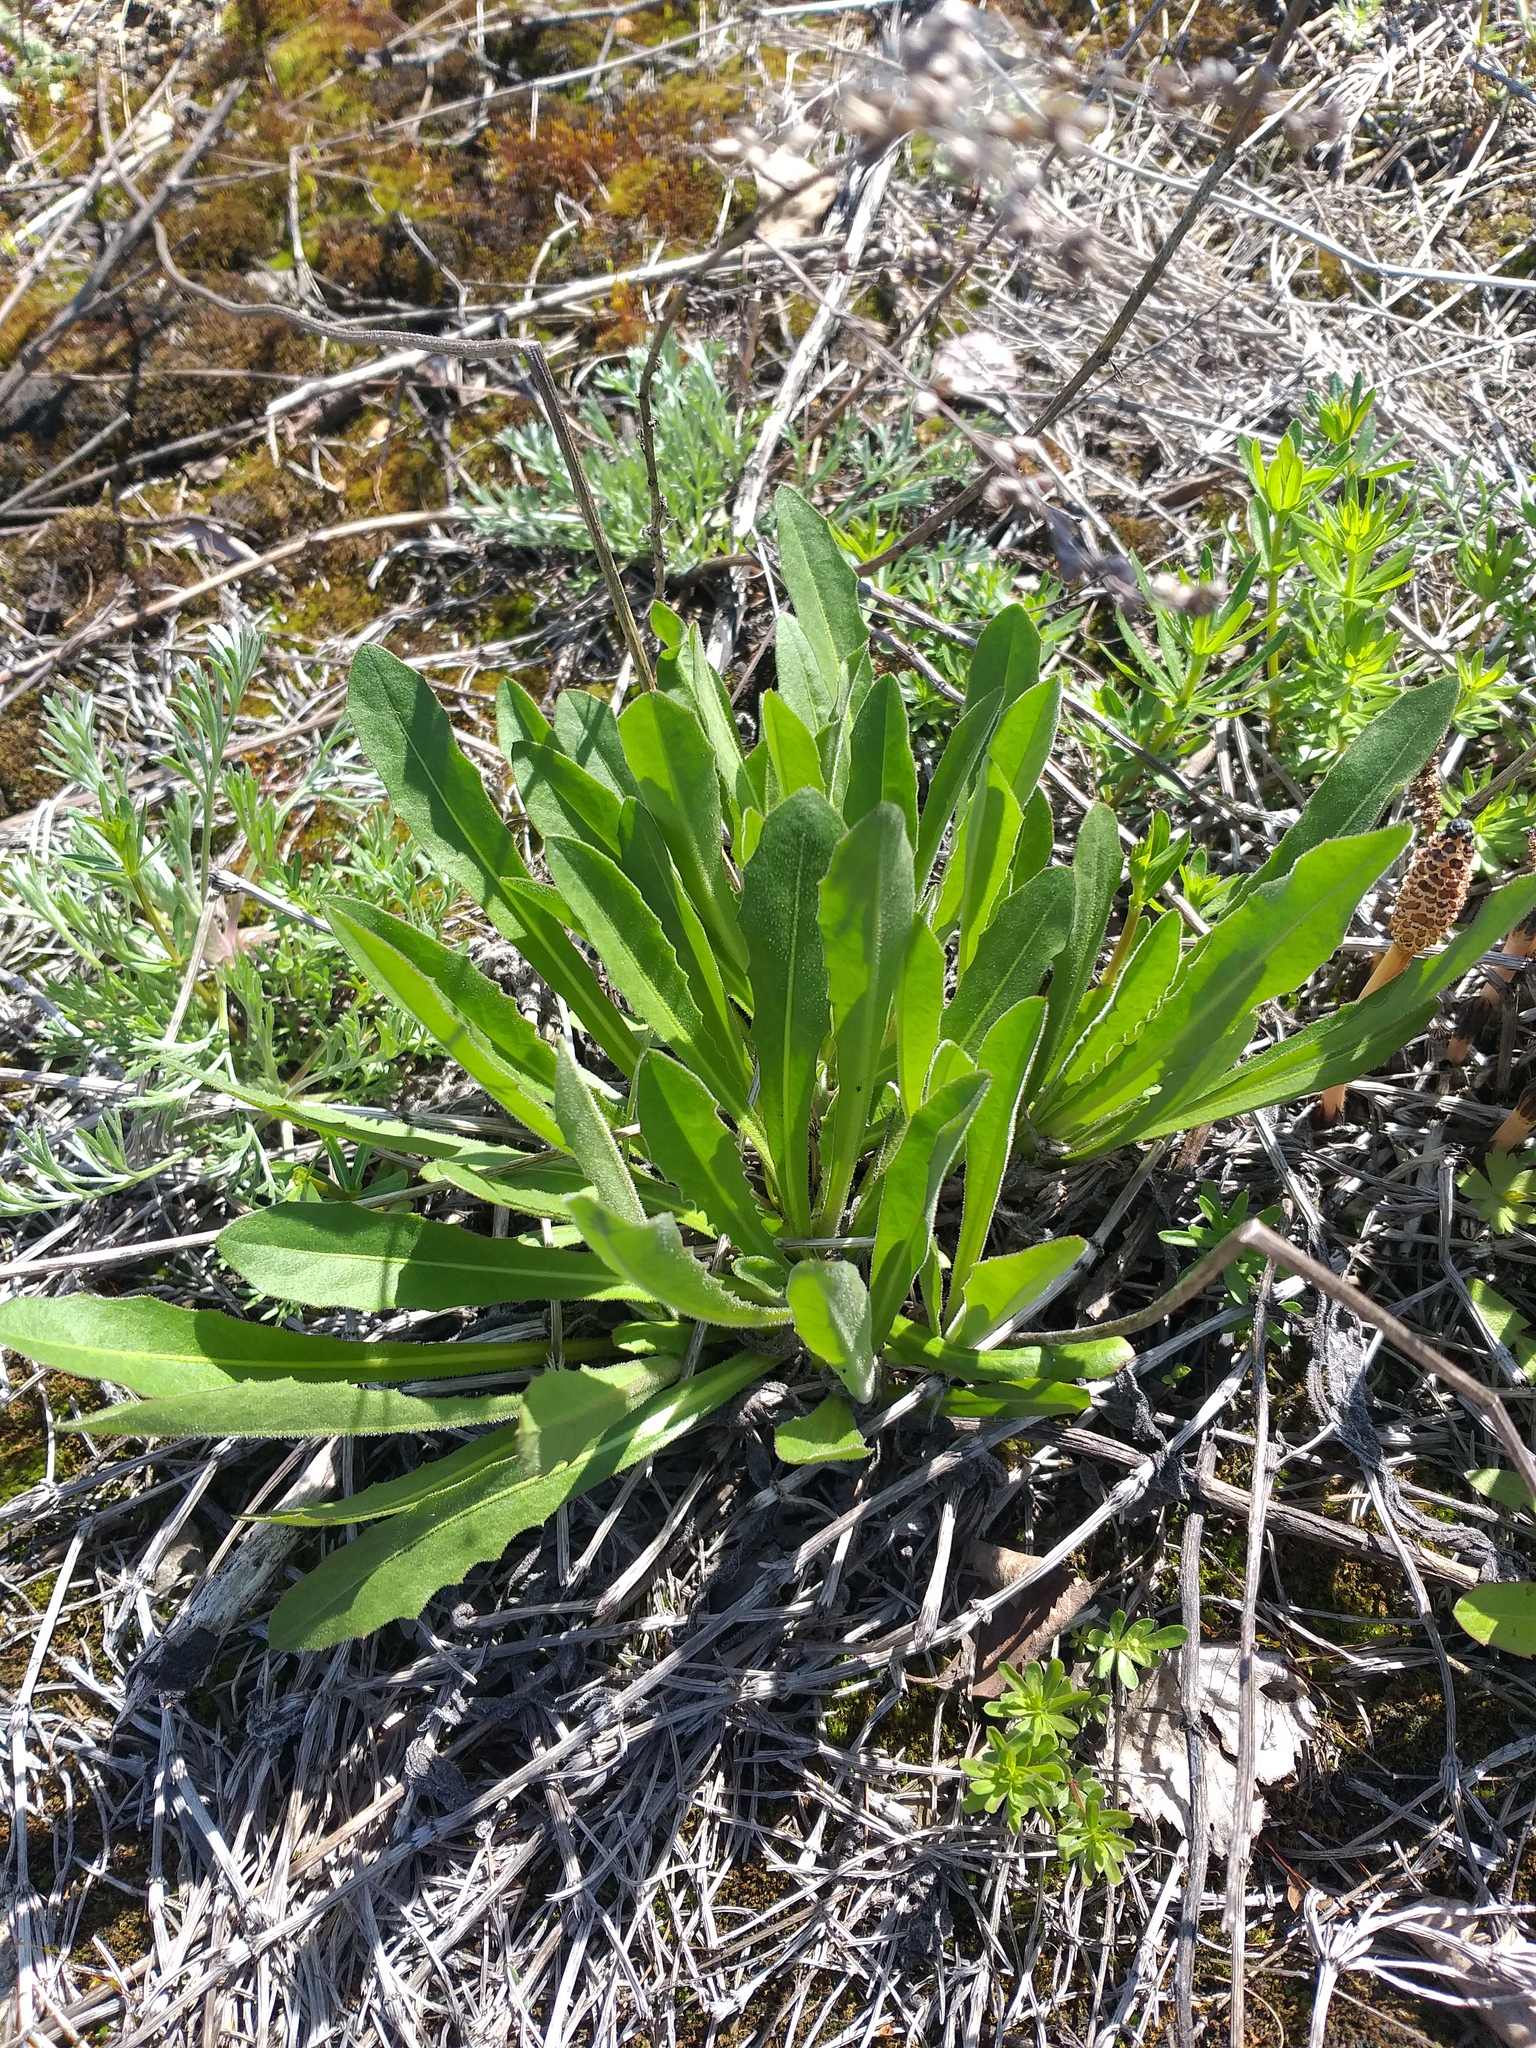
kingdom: Plantae
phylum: Tracheophyta
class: Magnoliopsida
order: Asterales
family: Asteraceae
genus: Leontodon
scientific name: Leontodon hispidus
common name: Rough hawkbit
